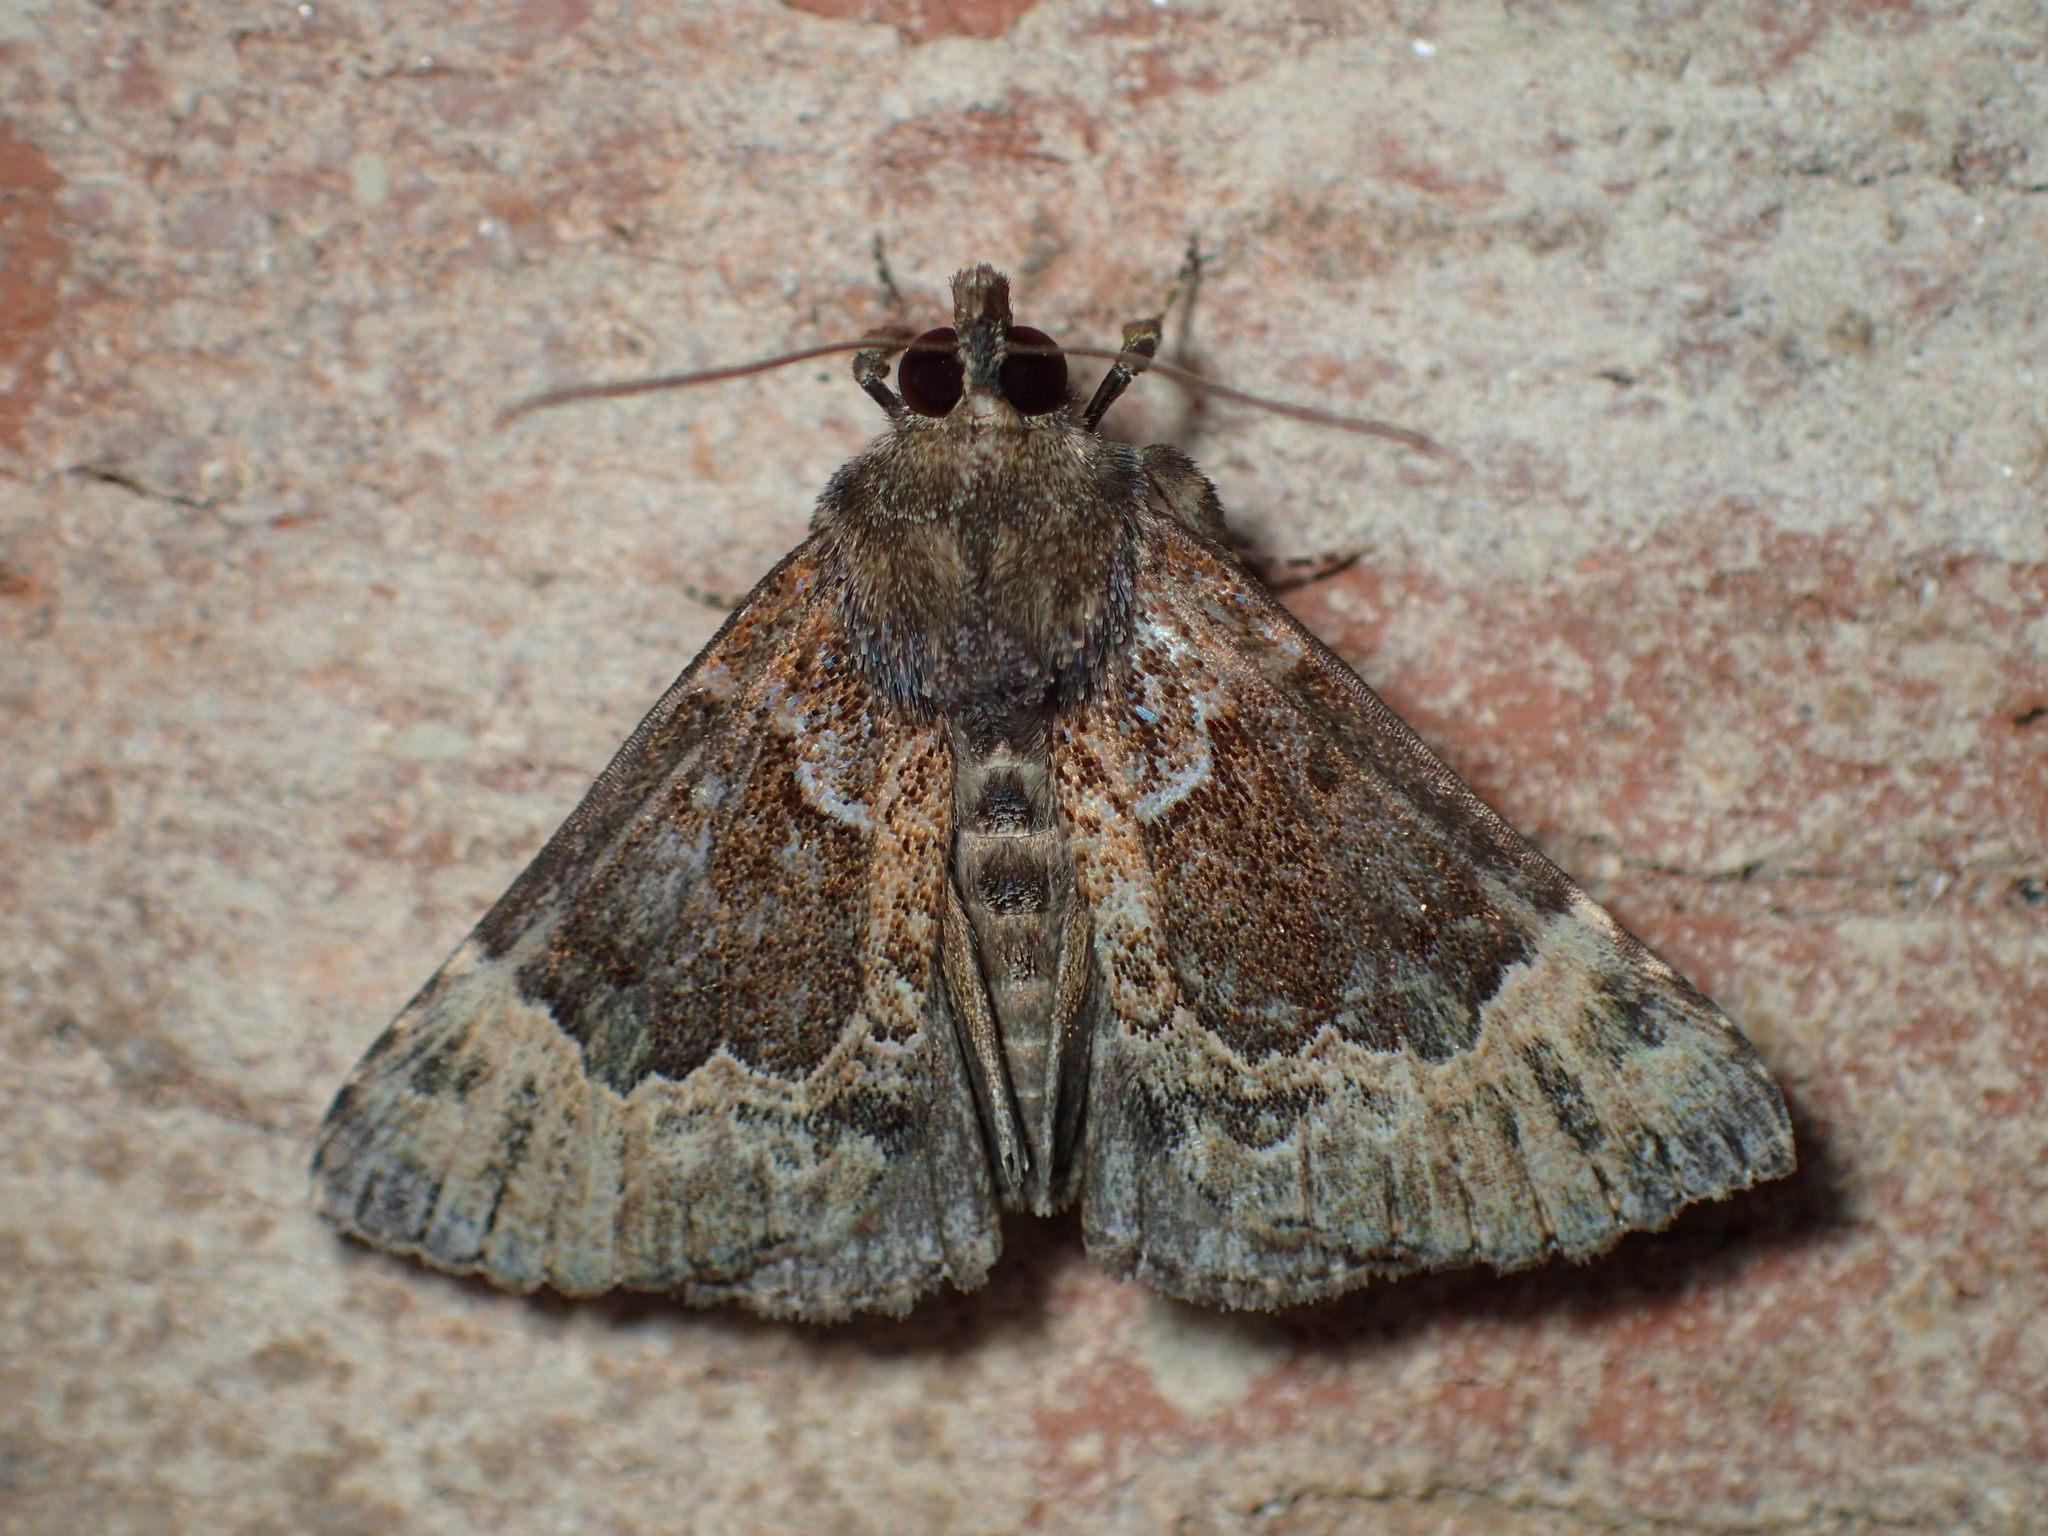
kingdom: Animalia
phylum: Arthropoda
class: Insecta
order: Lepidoptera
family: Erebidae
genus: Hypena
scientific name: Hypena palparia
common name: Mottled bomolocha moth
